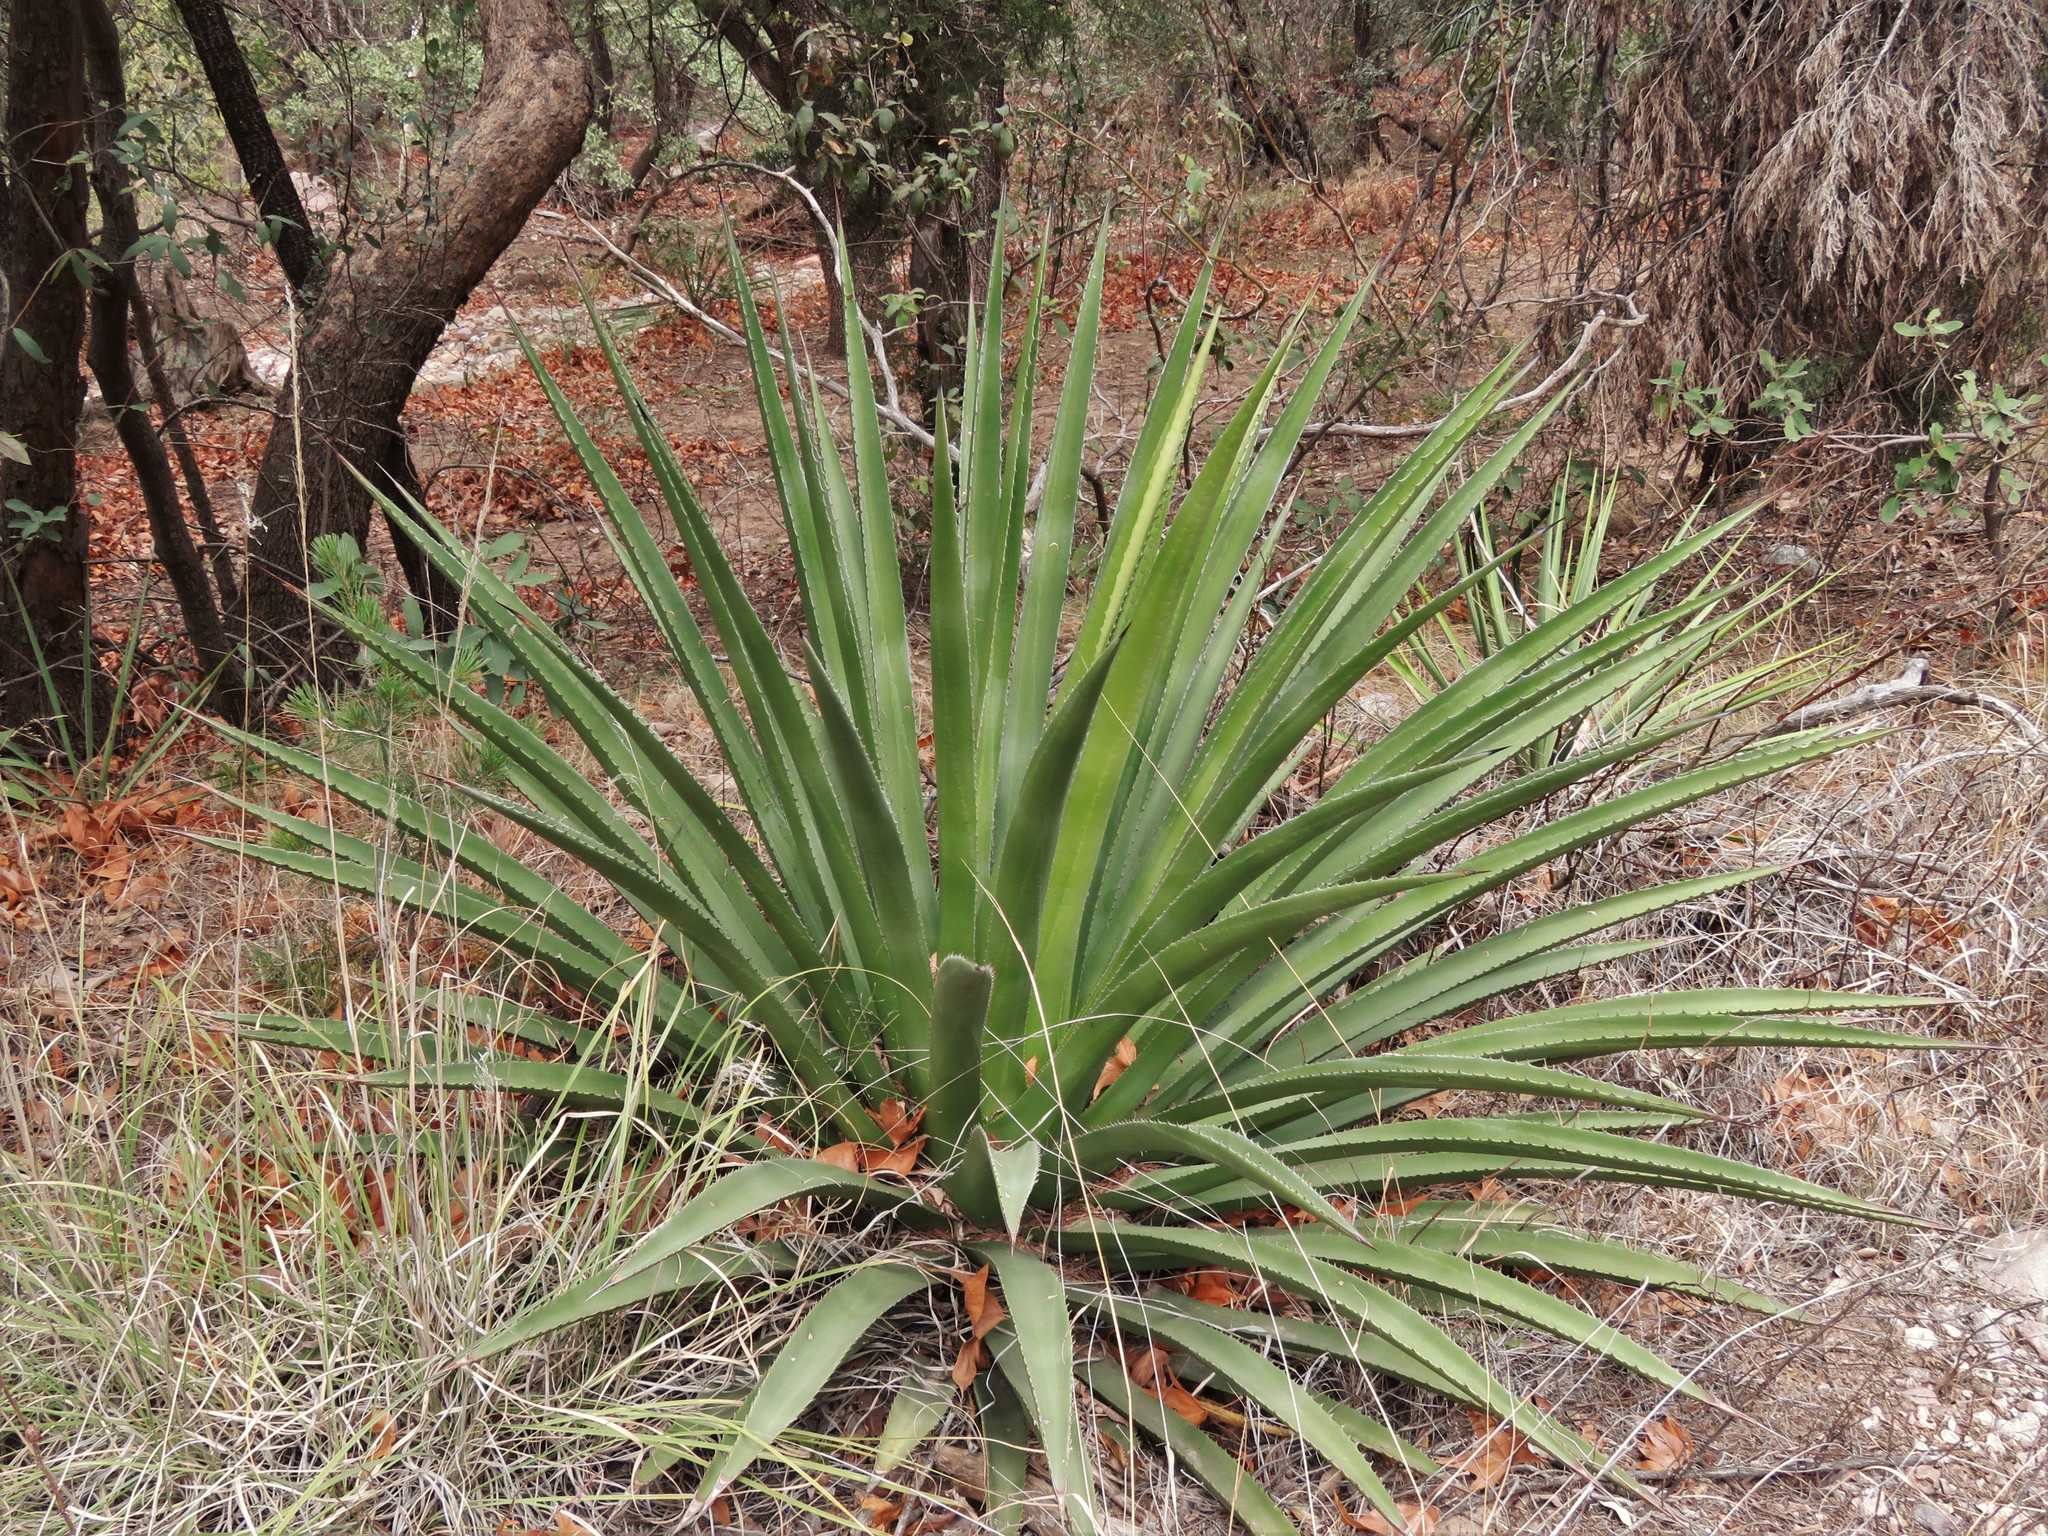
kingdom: Plantae
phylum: Tracheophyta
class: Liliopsida
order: Asparagales
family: Asparagaceae
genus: Agave
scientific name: Agave palmeri
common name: Palmer agave
